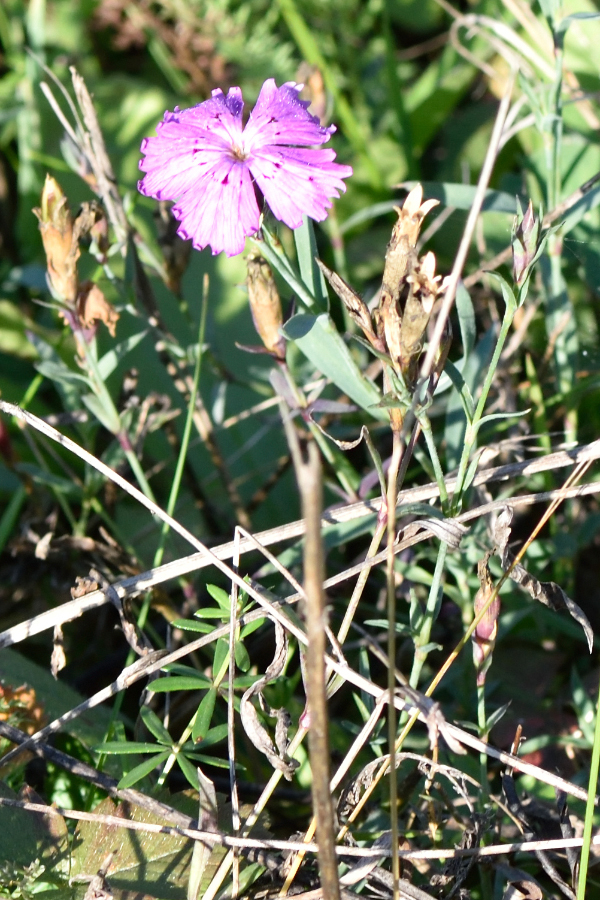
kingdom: Plantae
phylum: Tracheophyta
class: Magnoliopsida
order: Caryophyllales
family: Caryophyllaceae
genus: Dianthus
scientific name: Dianthus chinensis
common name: Rainbow pink
